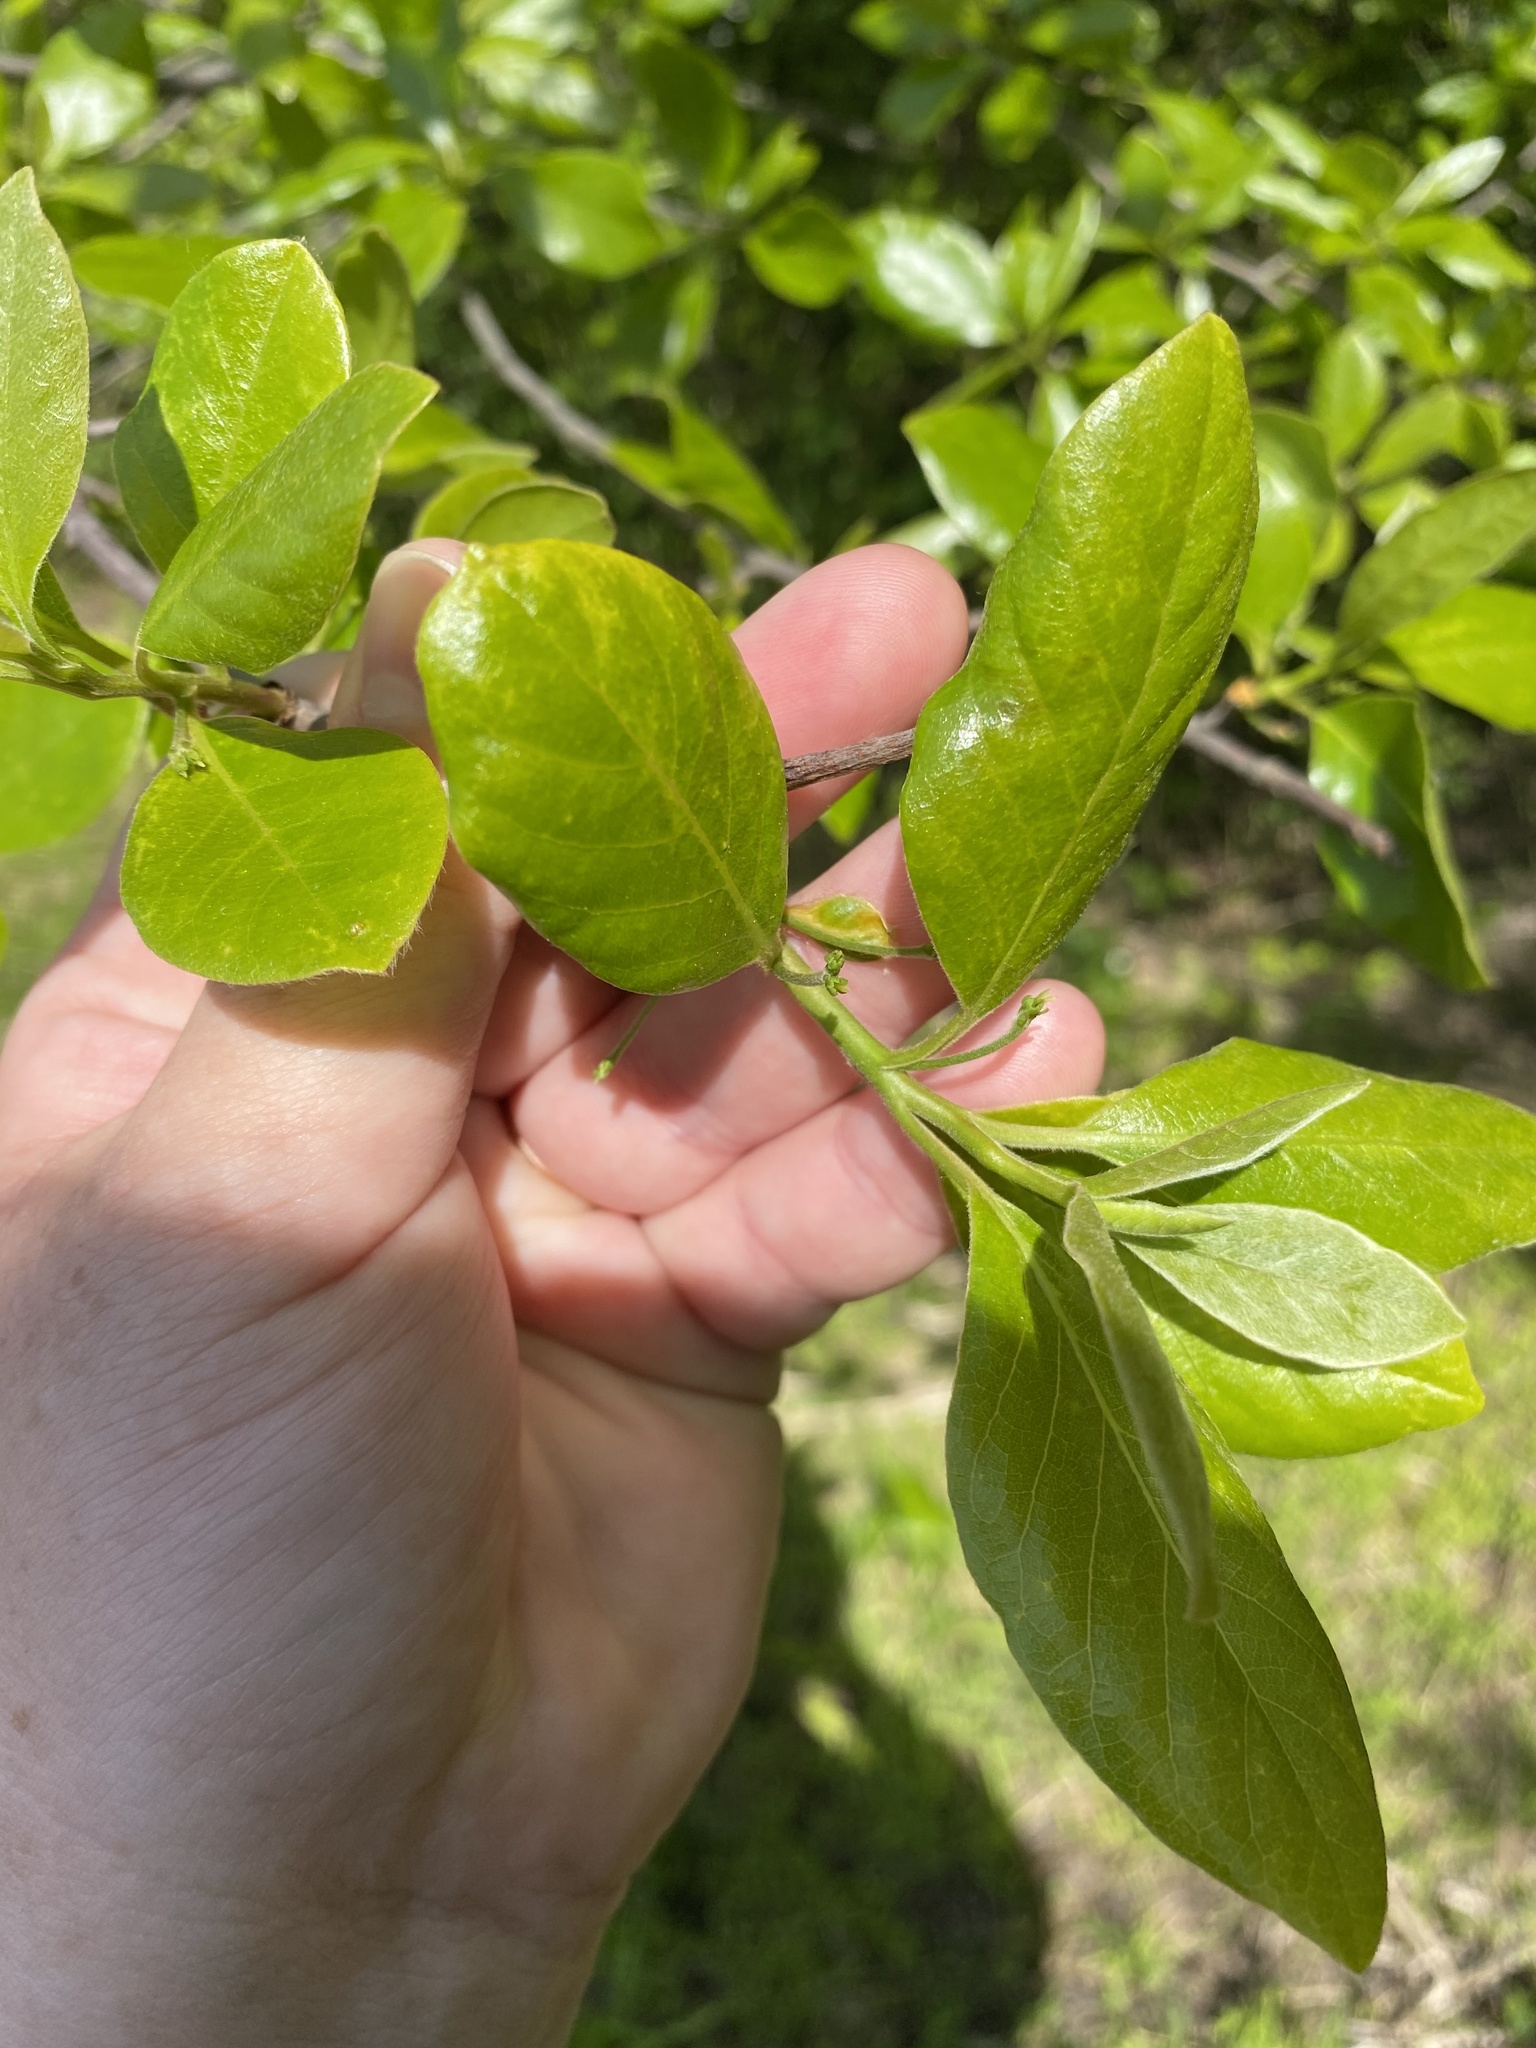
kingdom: Plantae
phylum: Tracheophyta
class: Magnoliopsida
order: Cornales
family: Nyssaceae
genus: Nyssa
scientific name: Nyssa sylvatica
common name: Black tupelo
